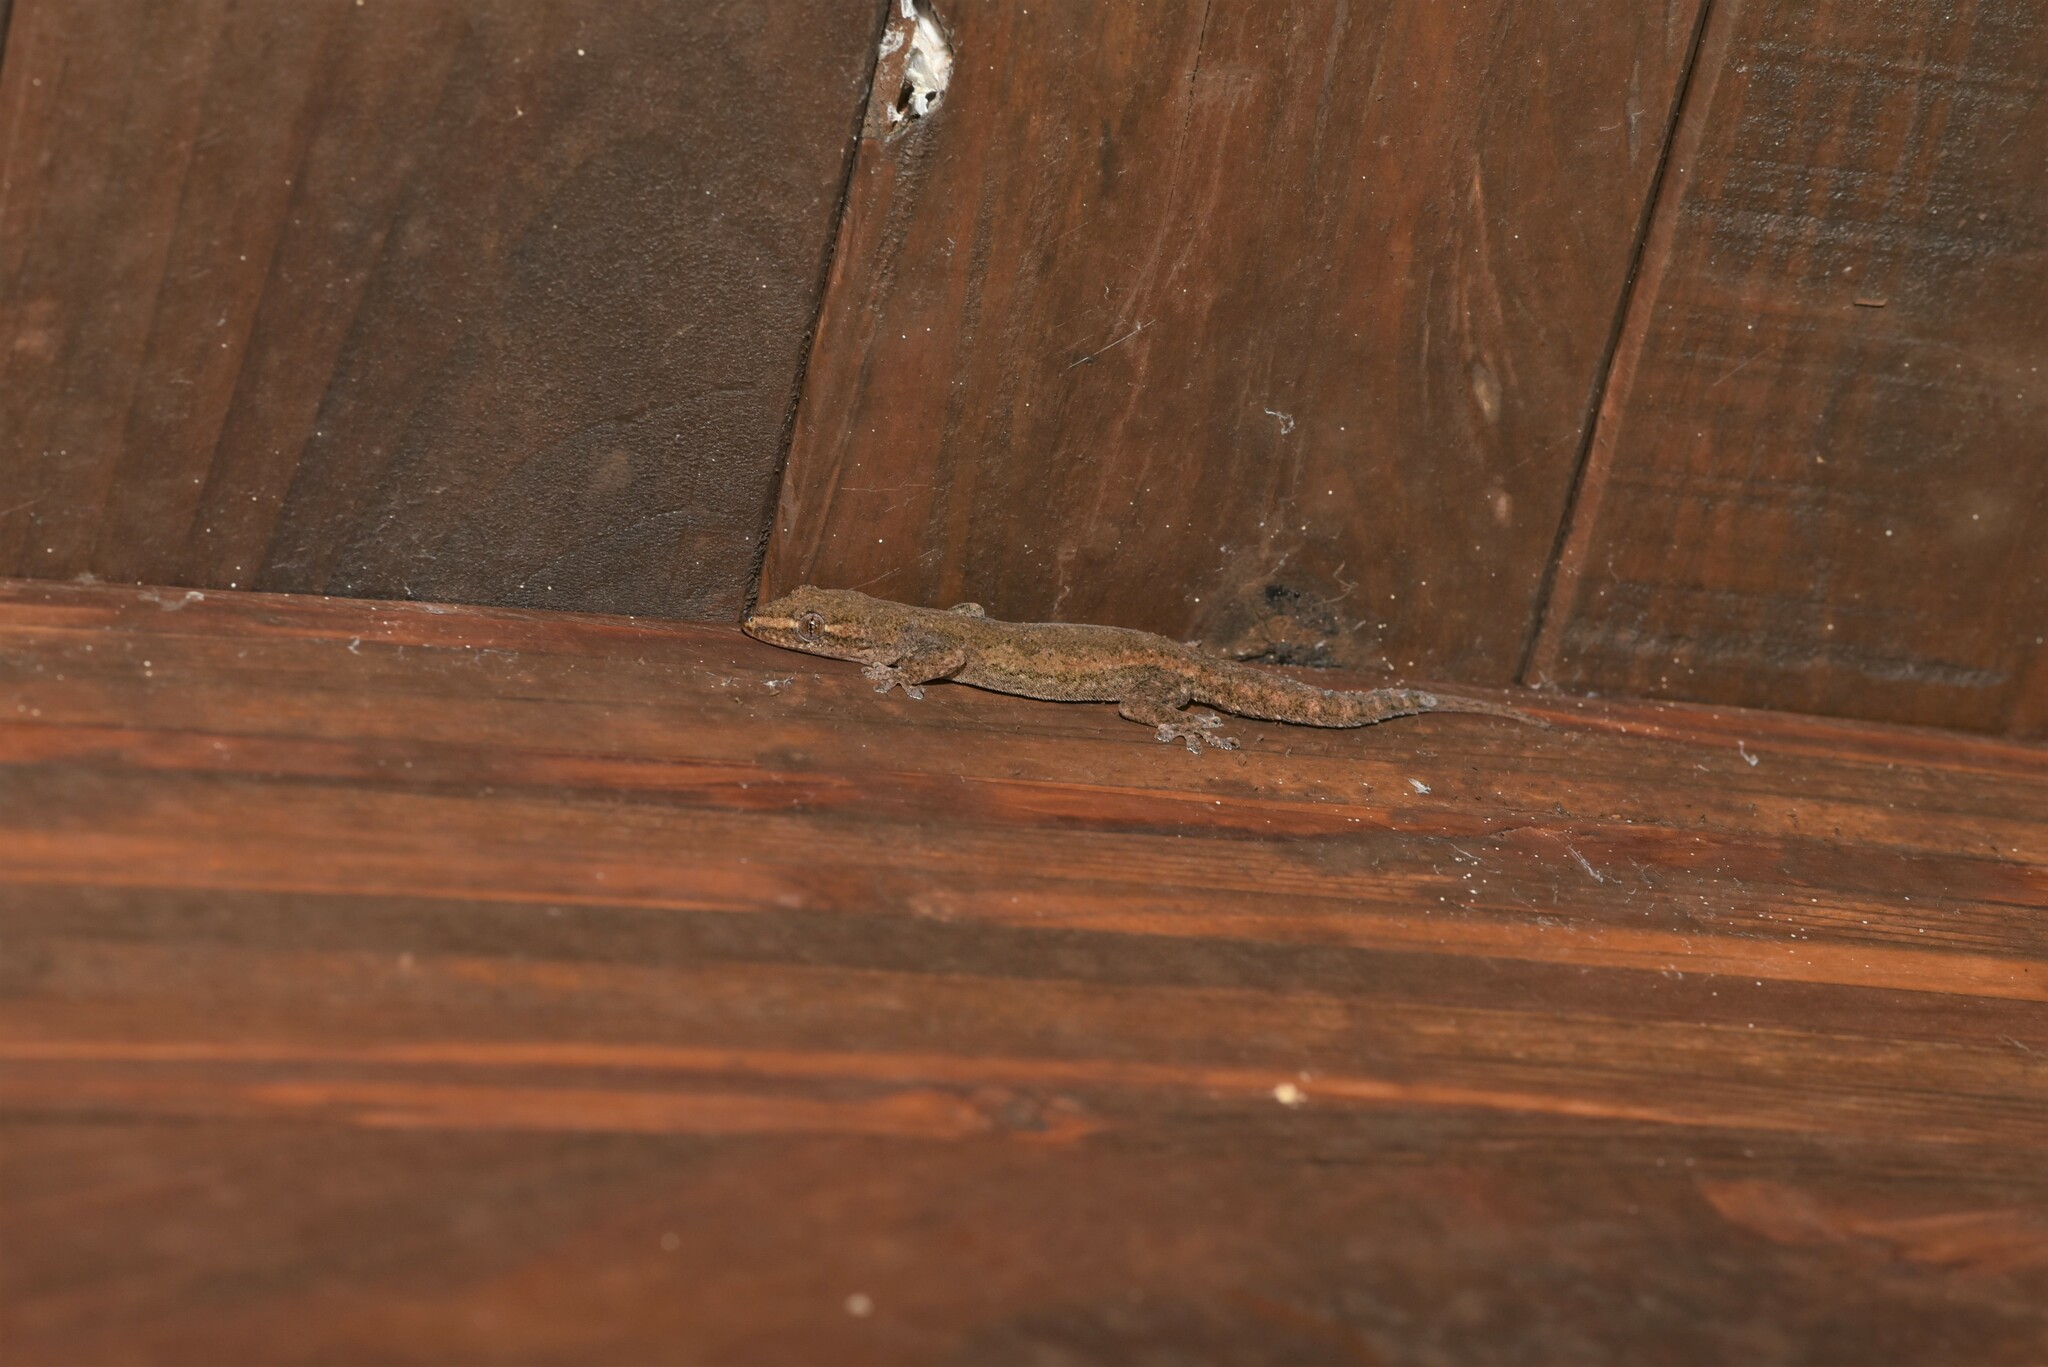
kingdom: Animalia
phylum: Chordata
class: Squamata
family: Gekkonidae
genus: Hemidactylus
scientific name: Hemidactylus frenatus
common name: Common house gecko
